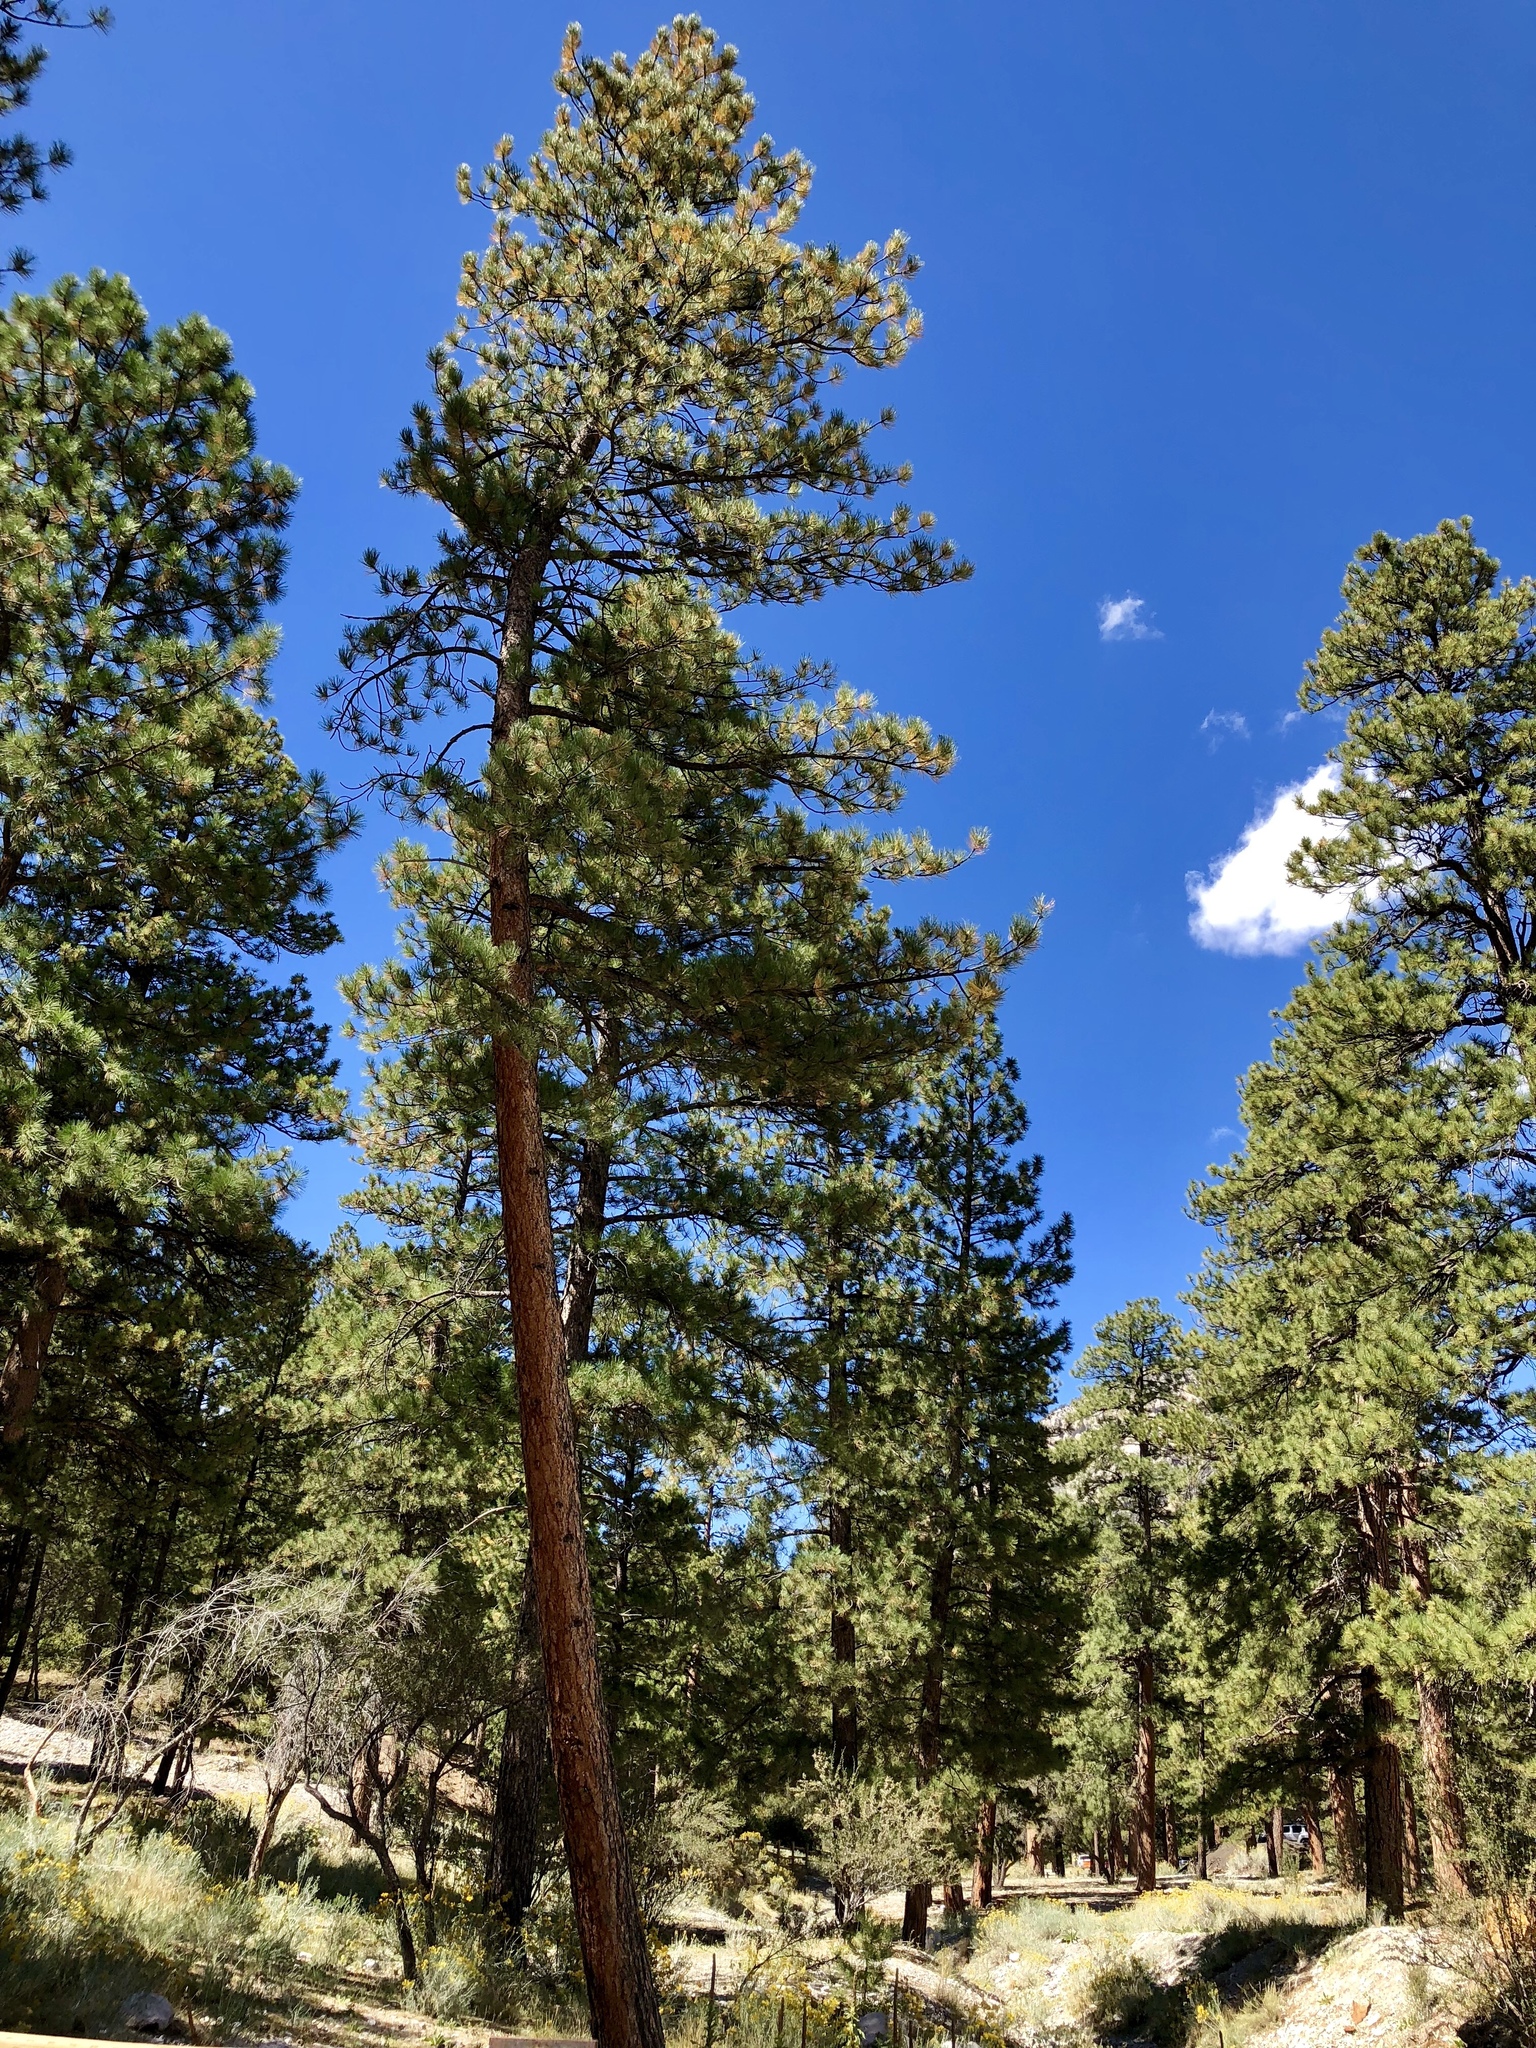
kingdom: Plantae
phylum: Tracheophyta
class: Pinopsida
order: Pinales
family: Pinaceae
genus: Pinus
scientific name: Pinus ponderosa
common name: Western yellow-pine
